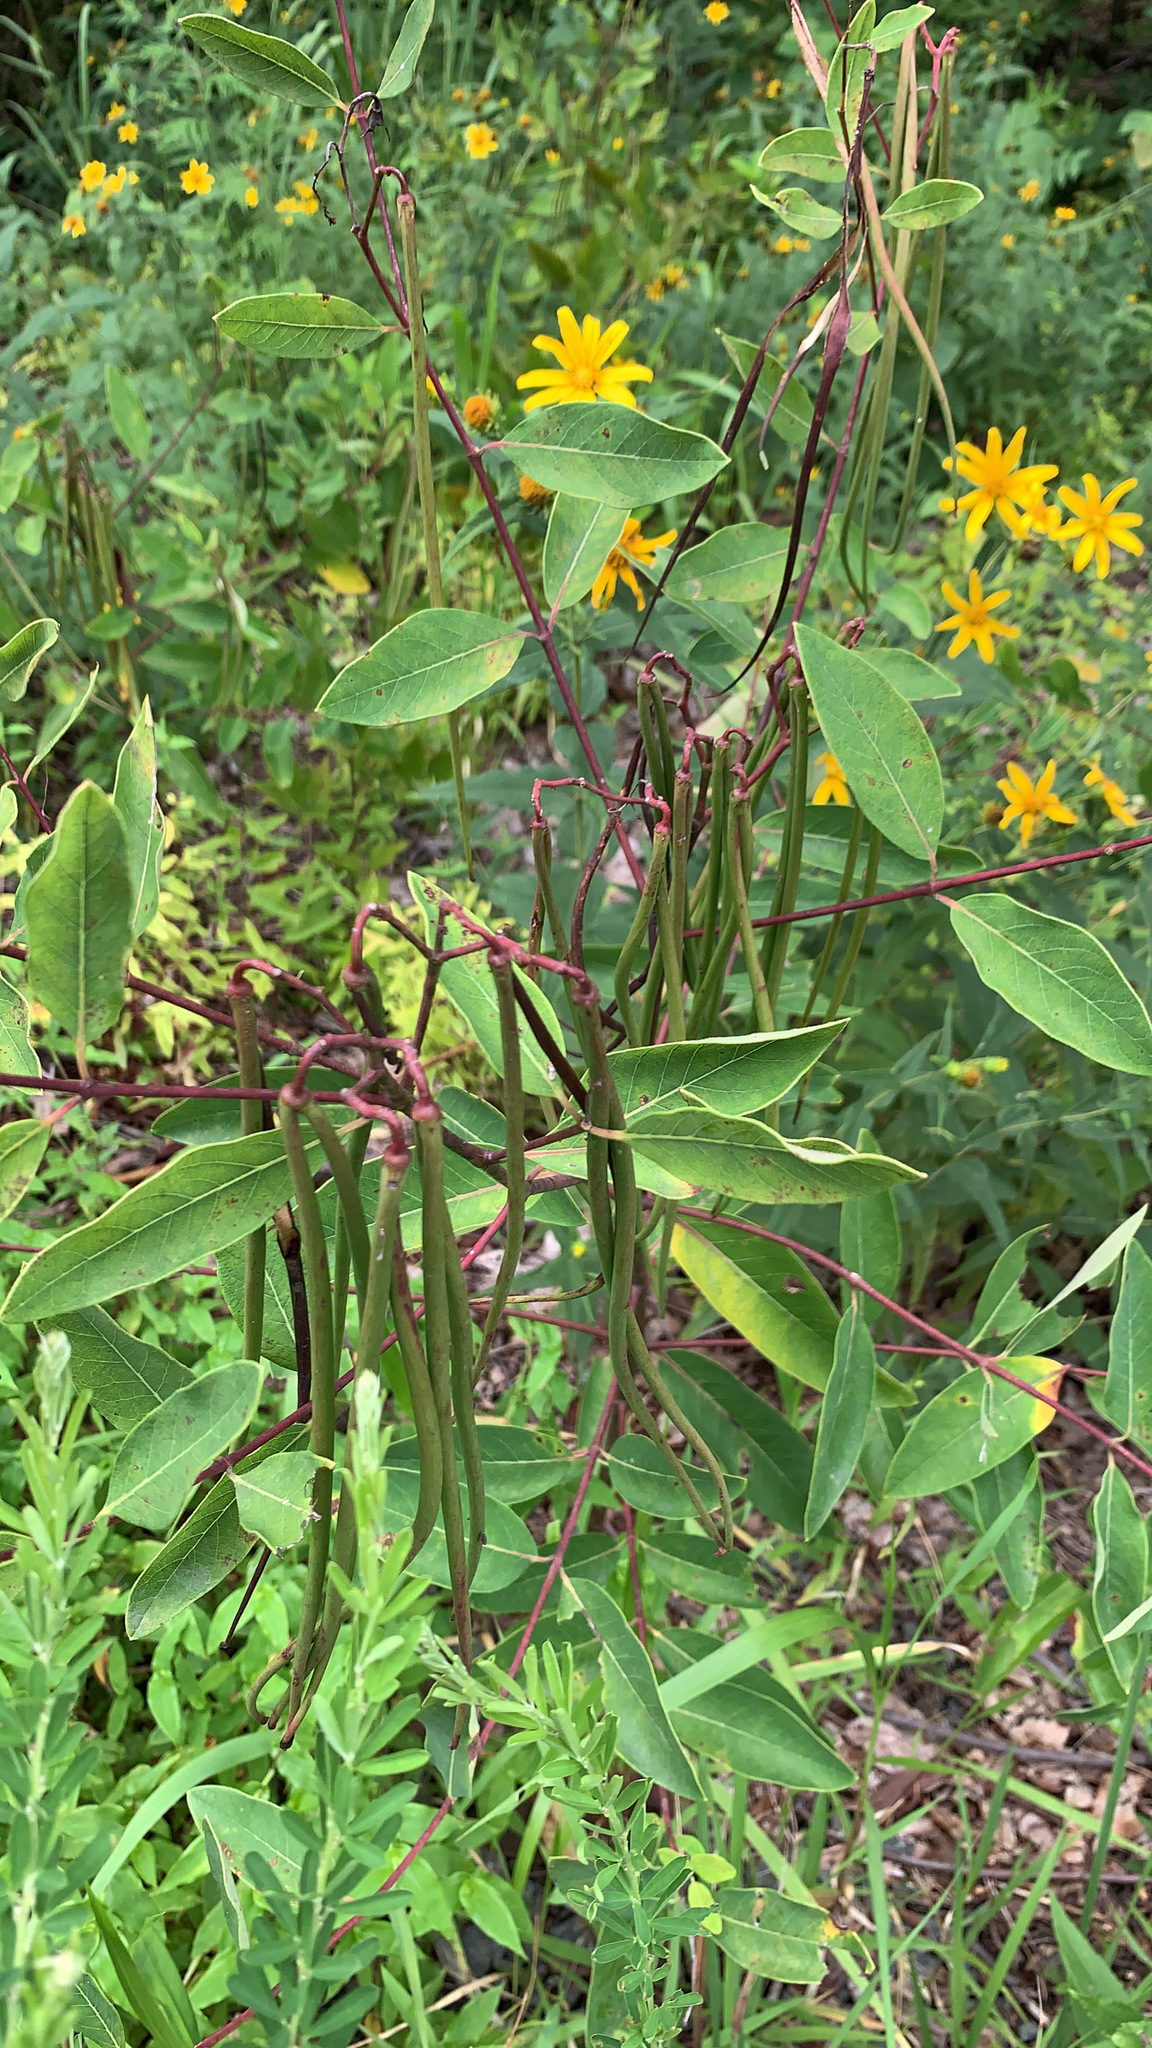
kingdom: Plantae
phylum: Tracheophyta
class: Magnoliopsida
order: Gentianales
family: Apocynaceae
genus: Apocynum
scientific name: Apocynum cannabinum
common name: Hemp dogbane
